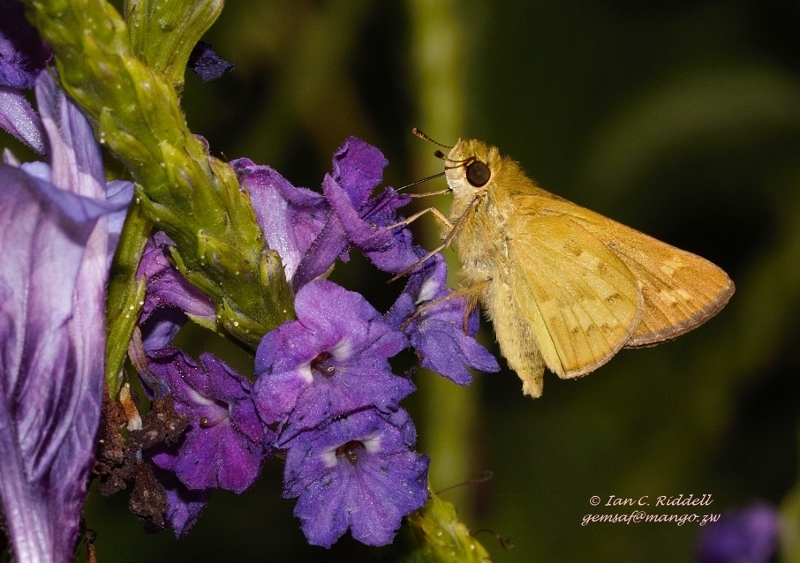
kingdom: Animalia
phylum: Arthropoda
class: Insecta
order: Hymenoptera
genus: Afrogenes
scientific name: Afrogenes
